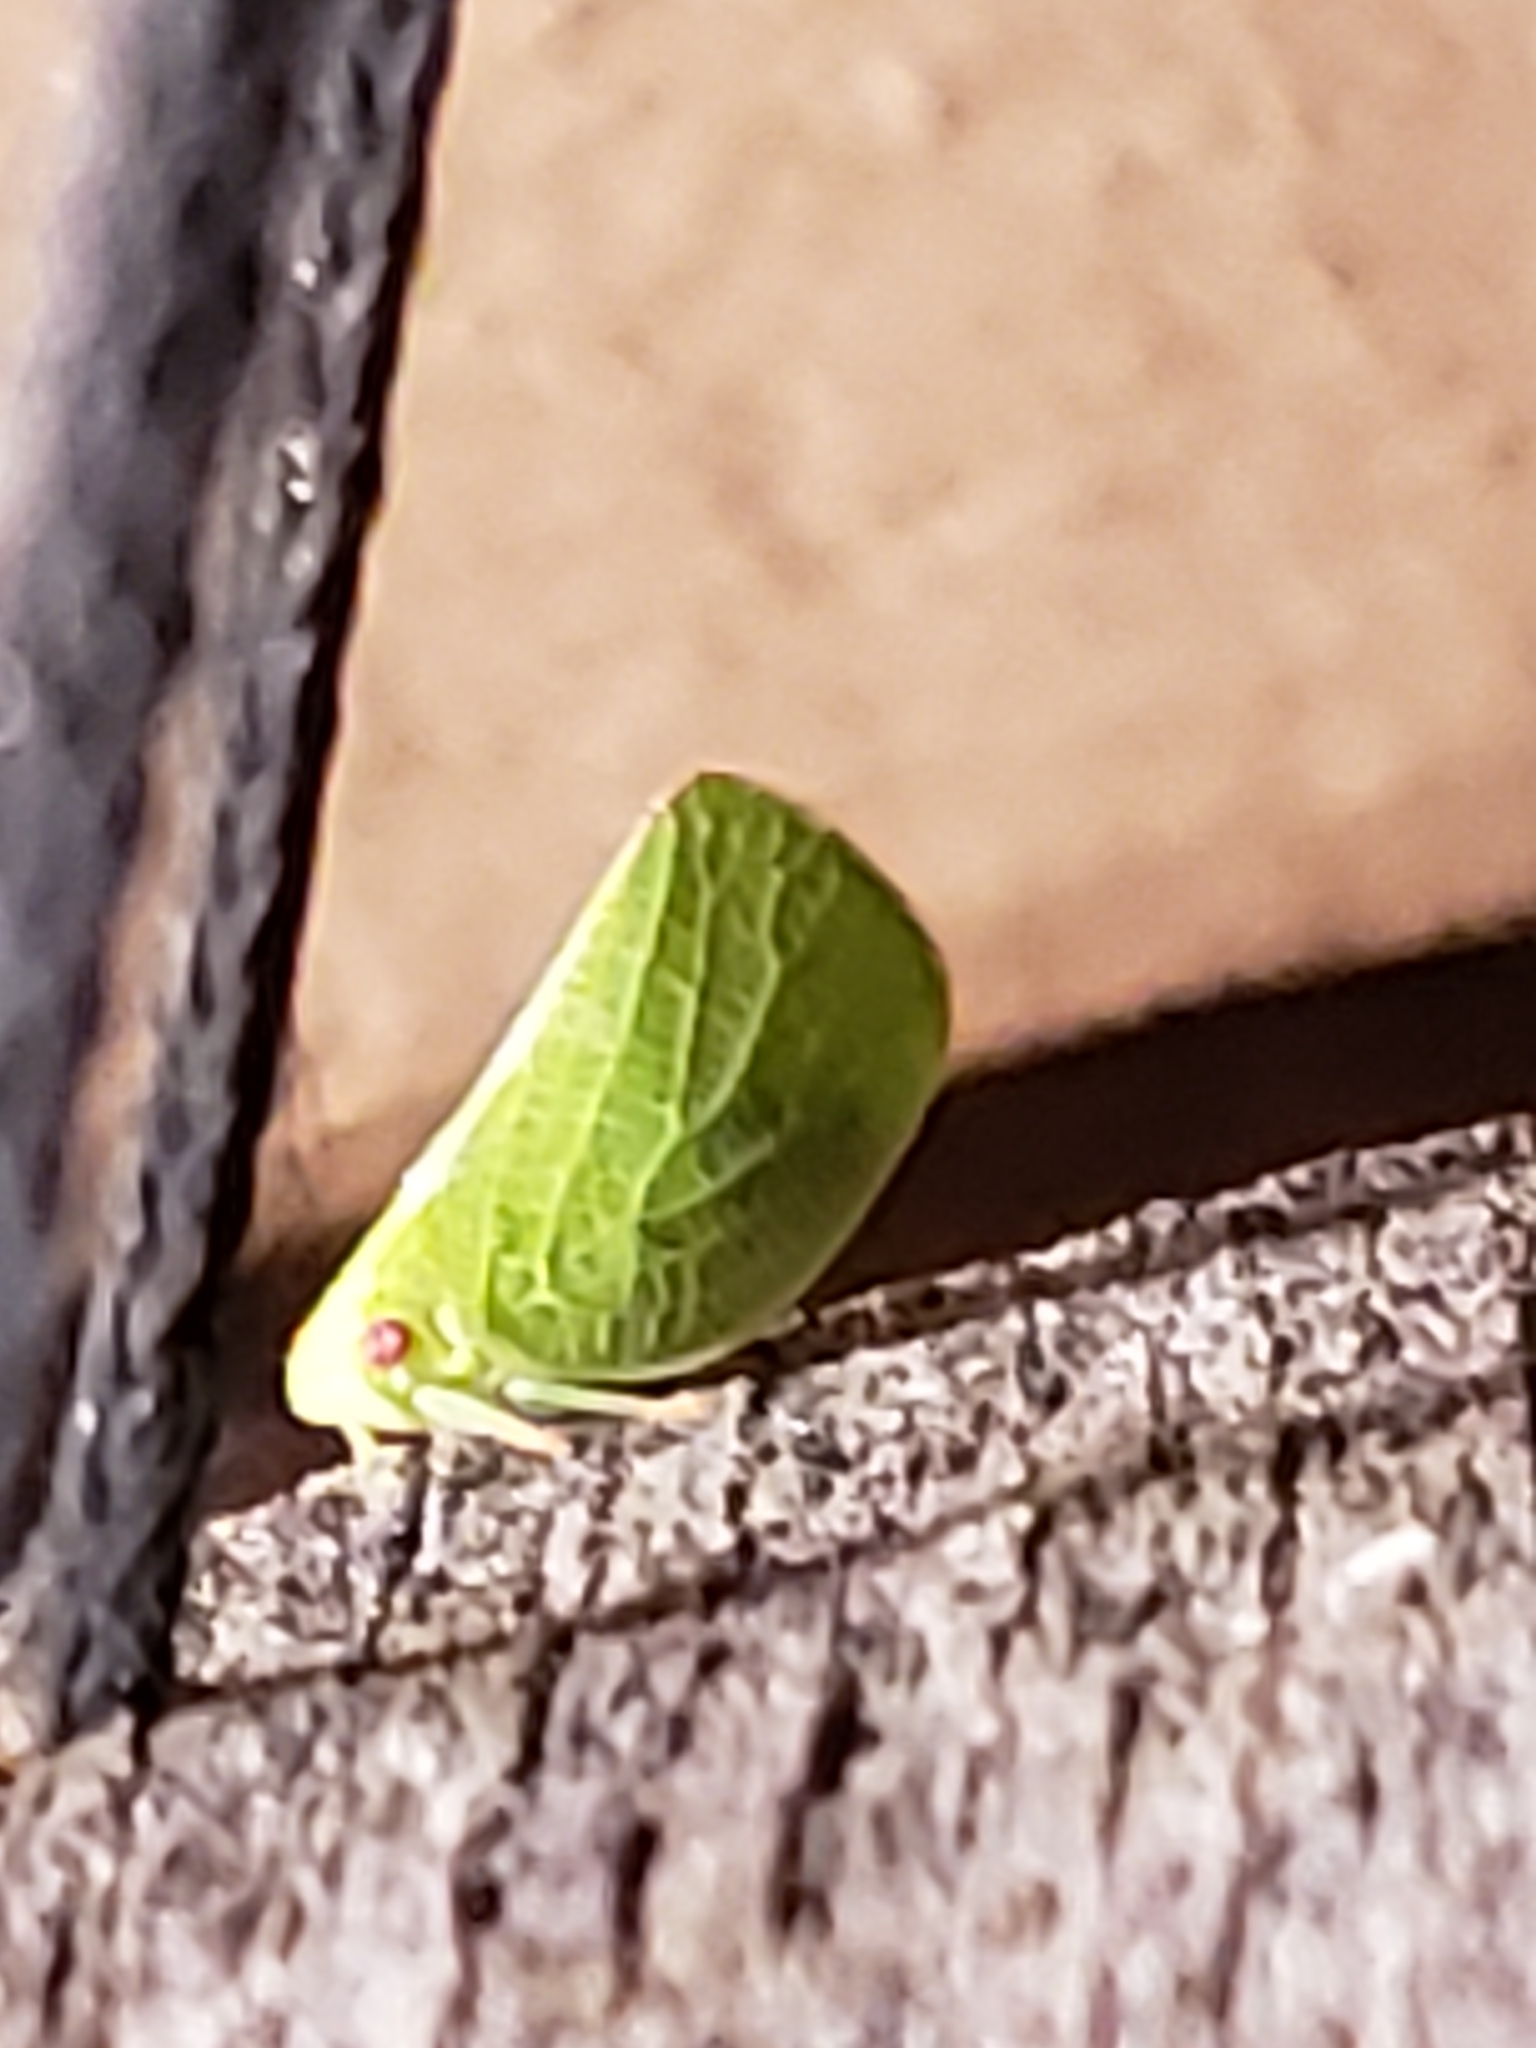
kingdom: Animalia
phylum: Arthropoda
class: Insecta
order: Hemiptera
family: Acanaloniidae
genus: Acanalonia
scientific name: Acanalonia conica
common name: Green cone-headed planthopper
